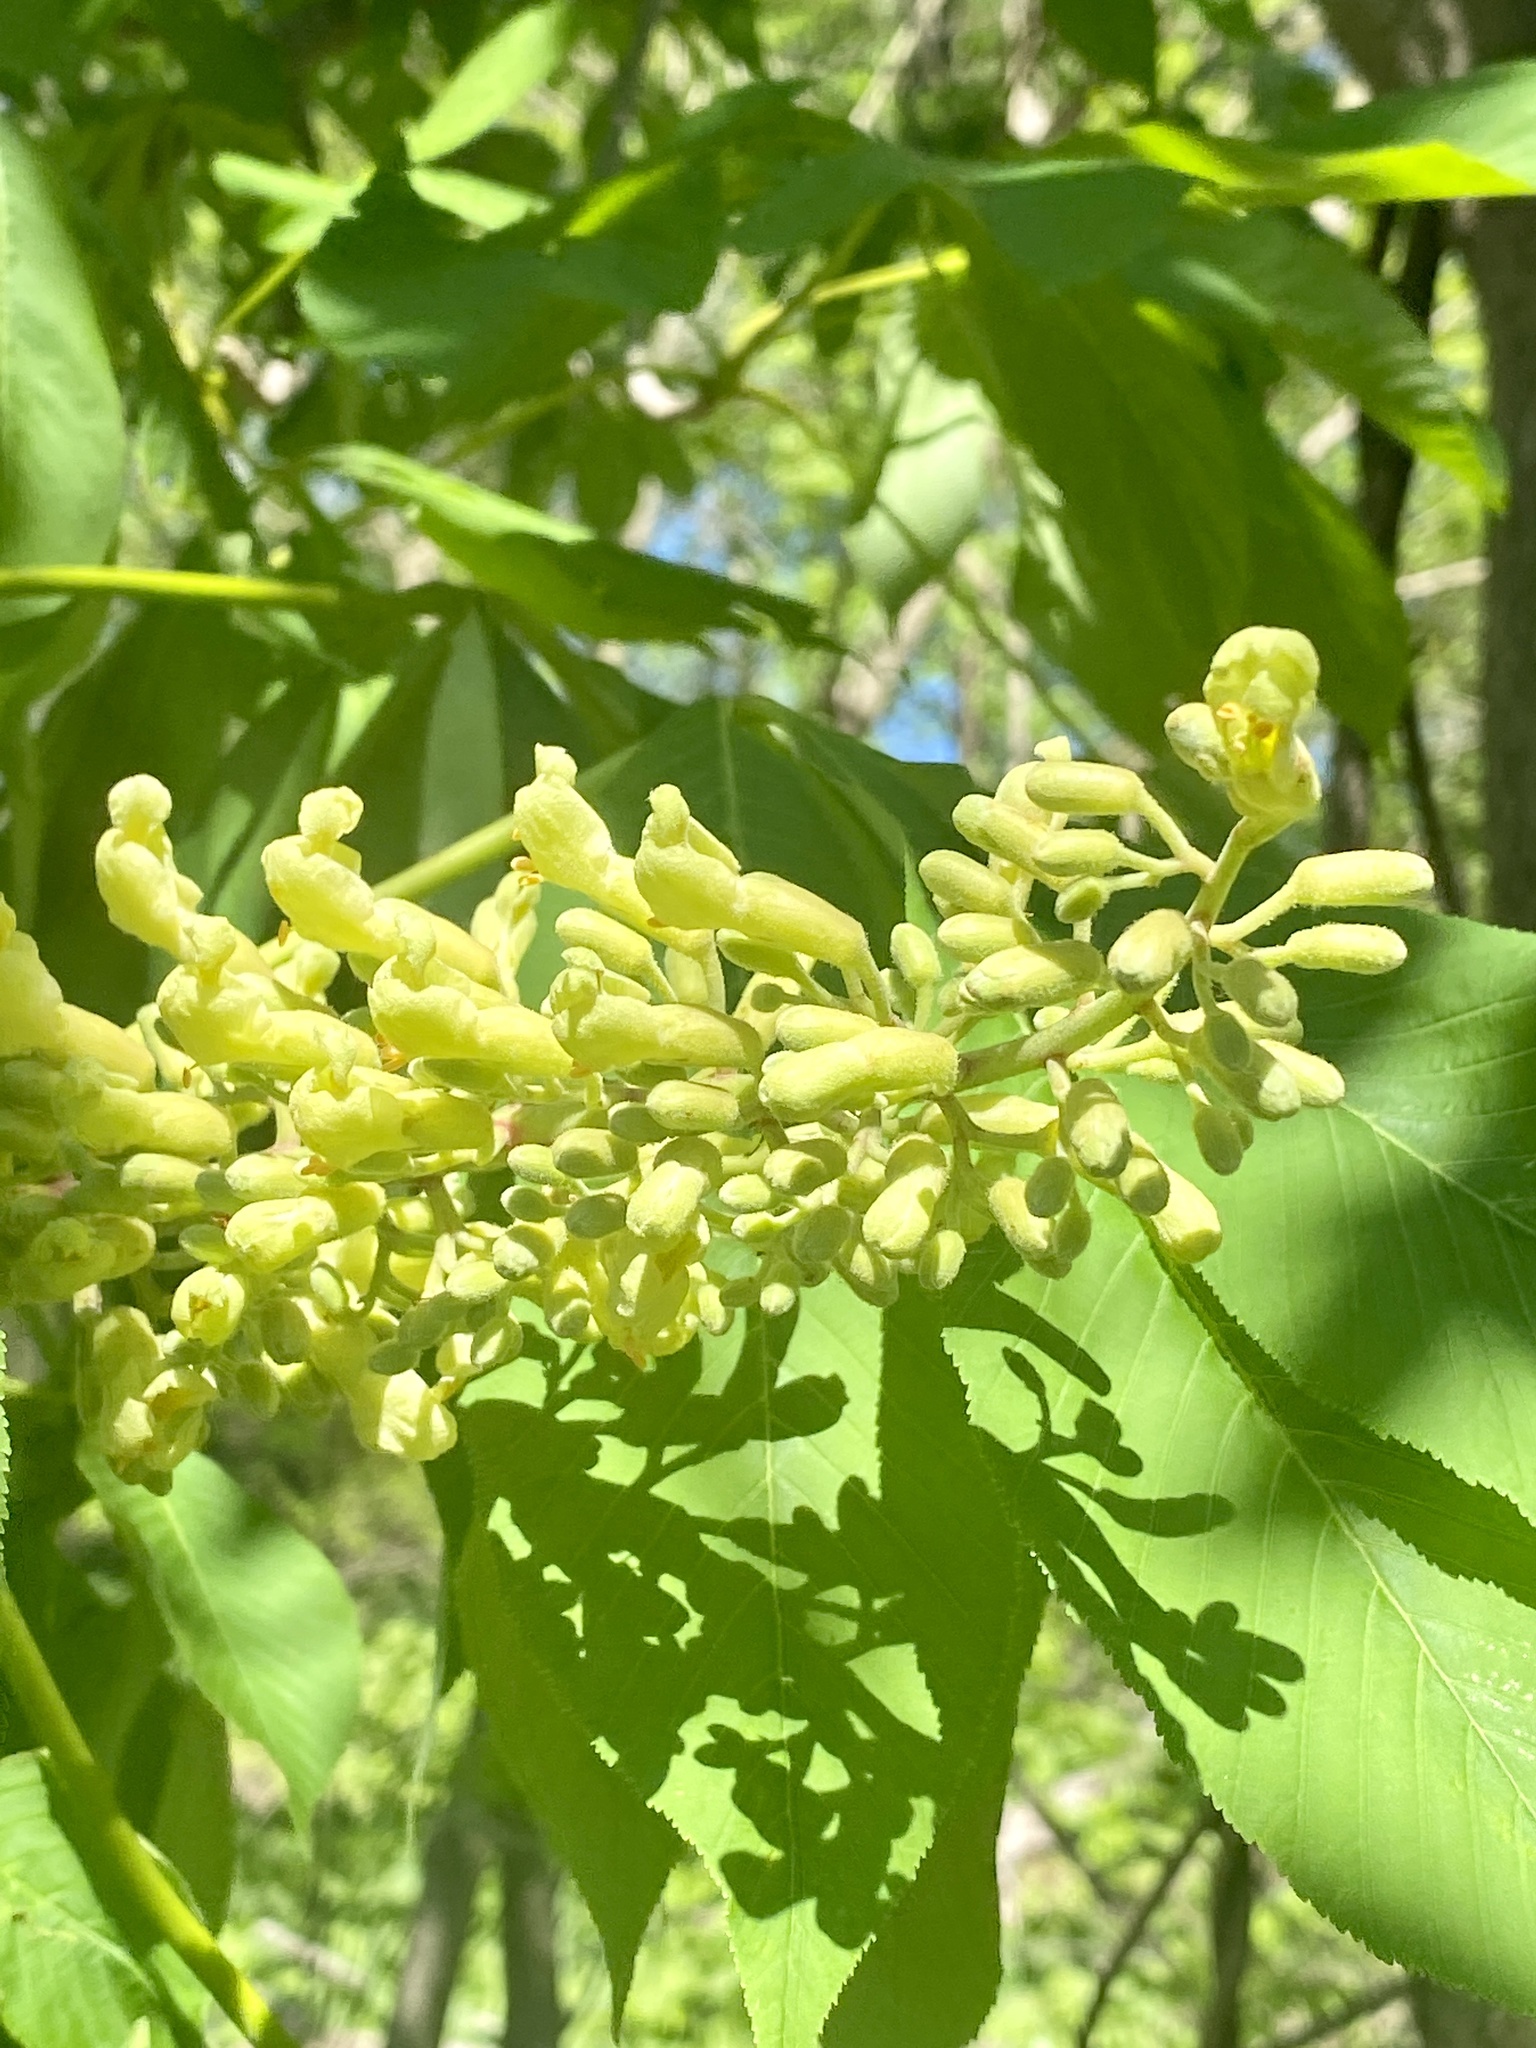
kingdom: Plantae
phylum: Tracheophyta
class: Magnoliopsida
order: Sapindales
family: Sapindaceae
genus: Aesculus
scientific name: Aesculus flava
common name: Yellow buckeye
